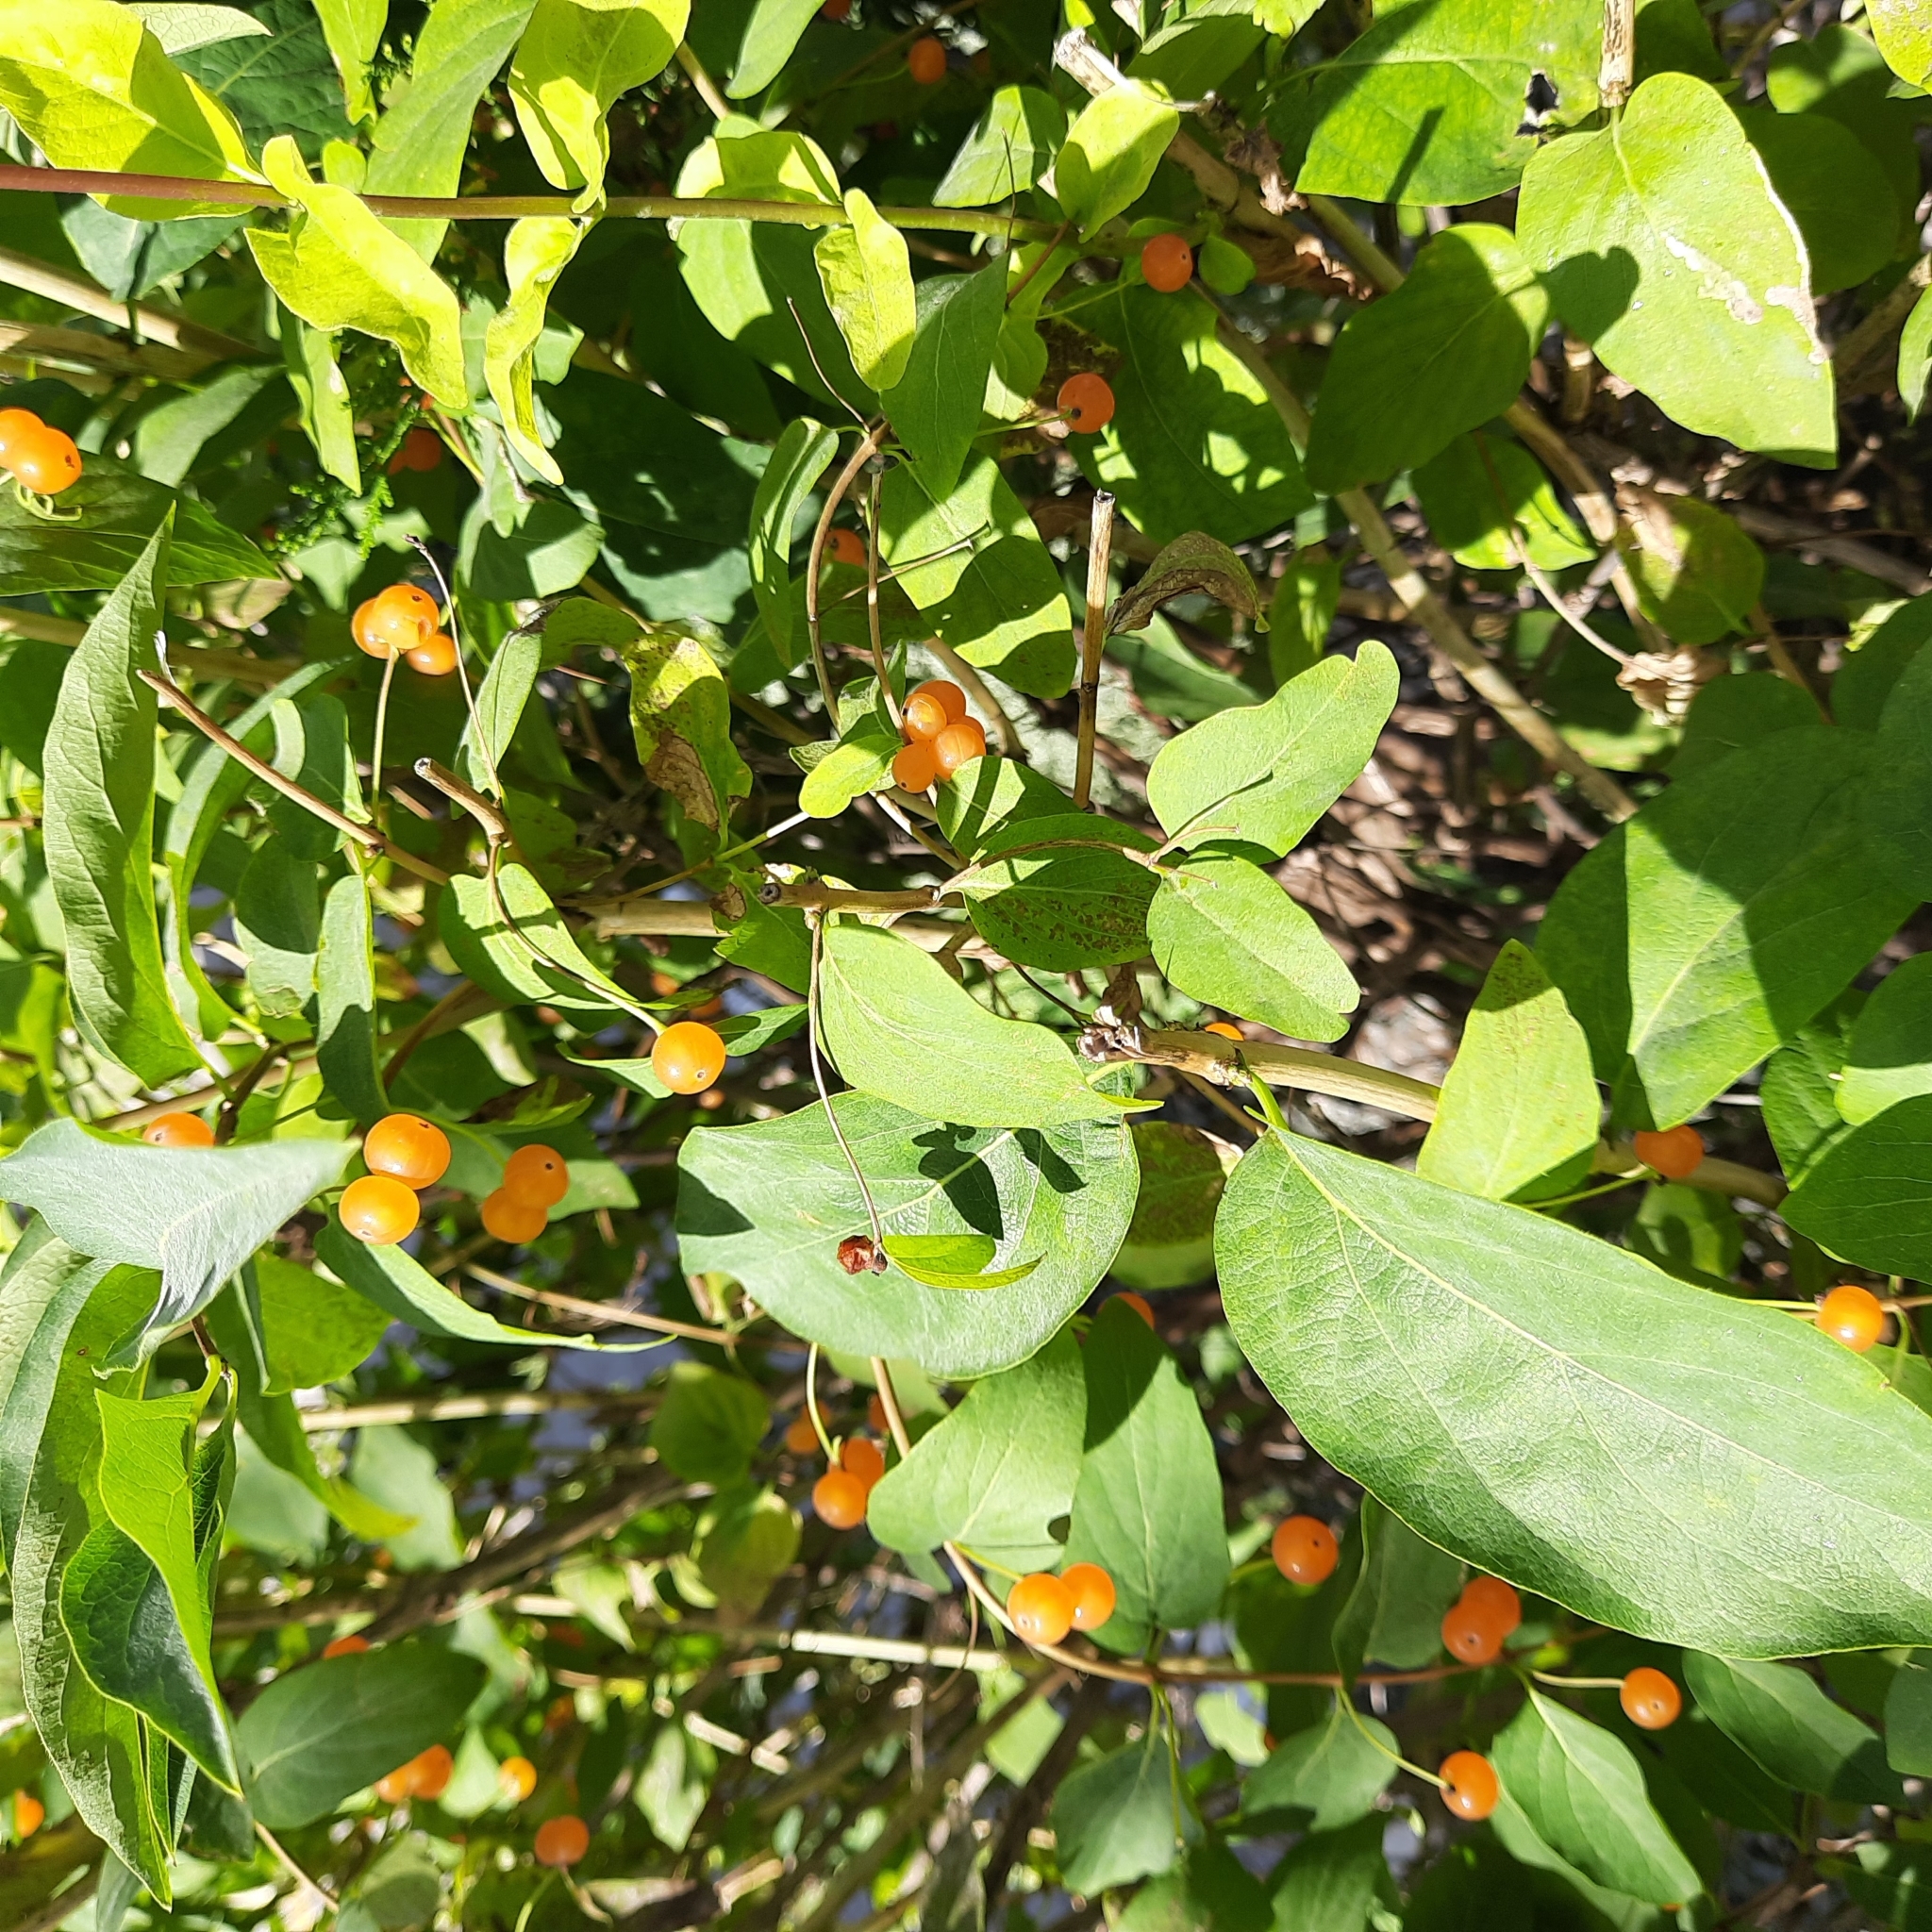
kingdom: Plantae
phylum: Tracheophyta
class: Magnoliopsida
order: Dipsacales
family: Caprifoliaceae
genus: Lonicera
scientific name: Lonicera tatarica
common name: Tatarian honeysuckle
